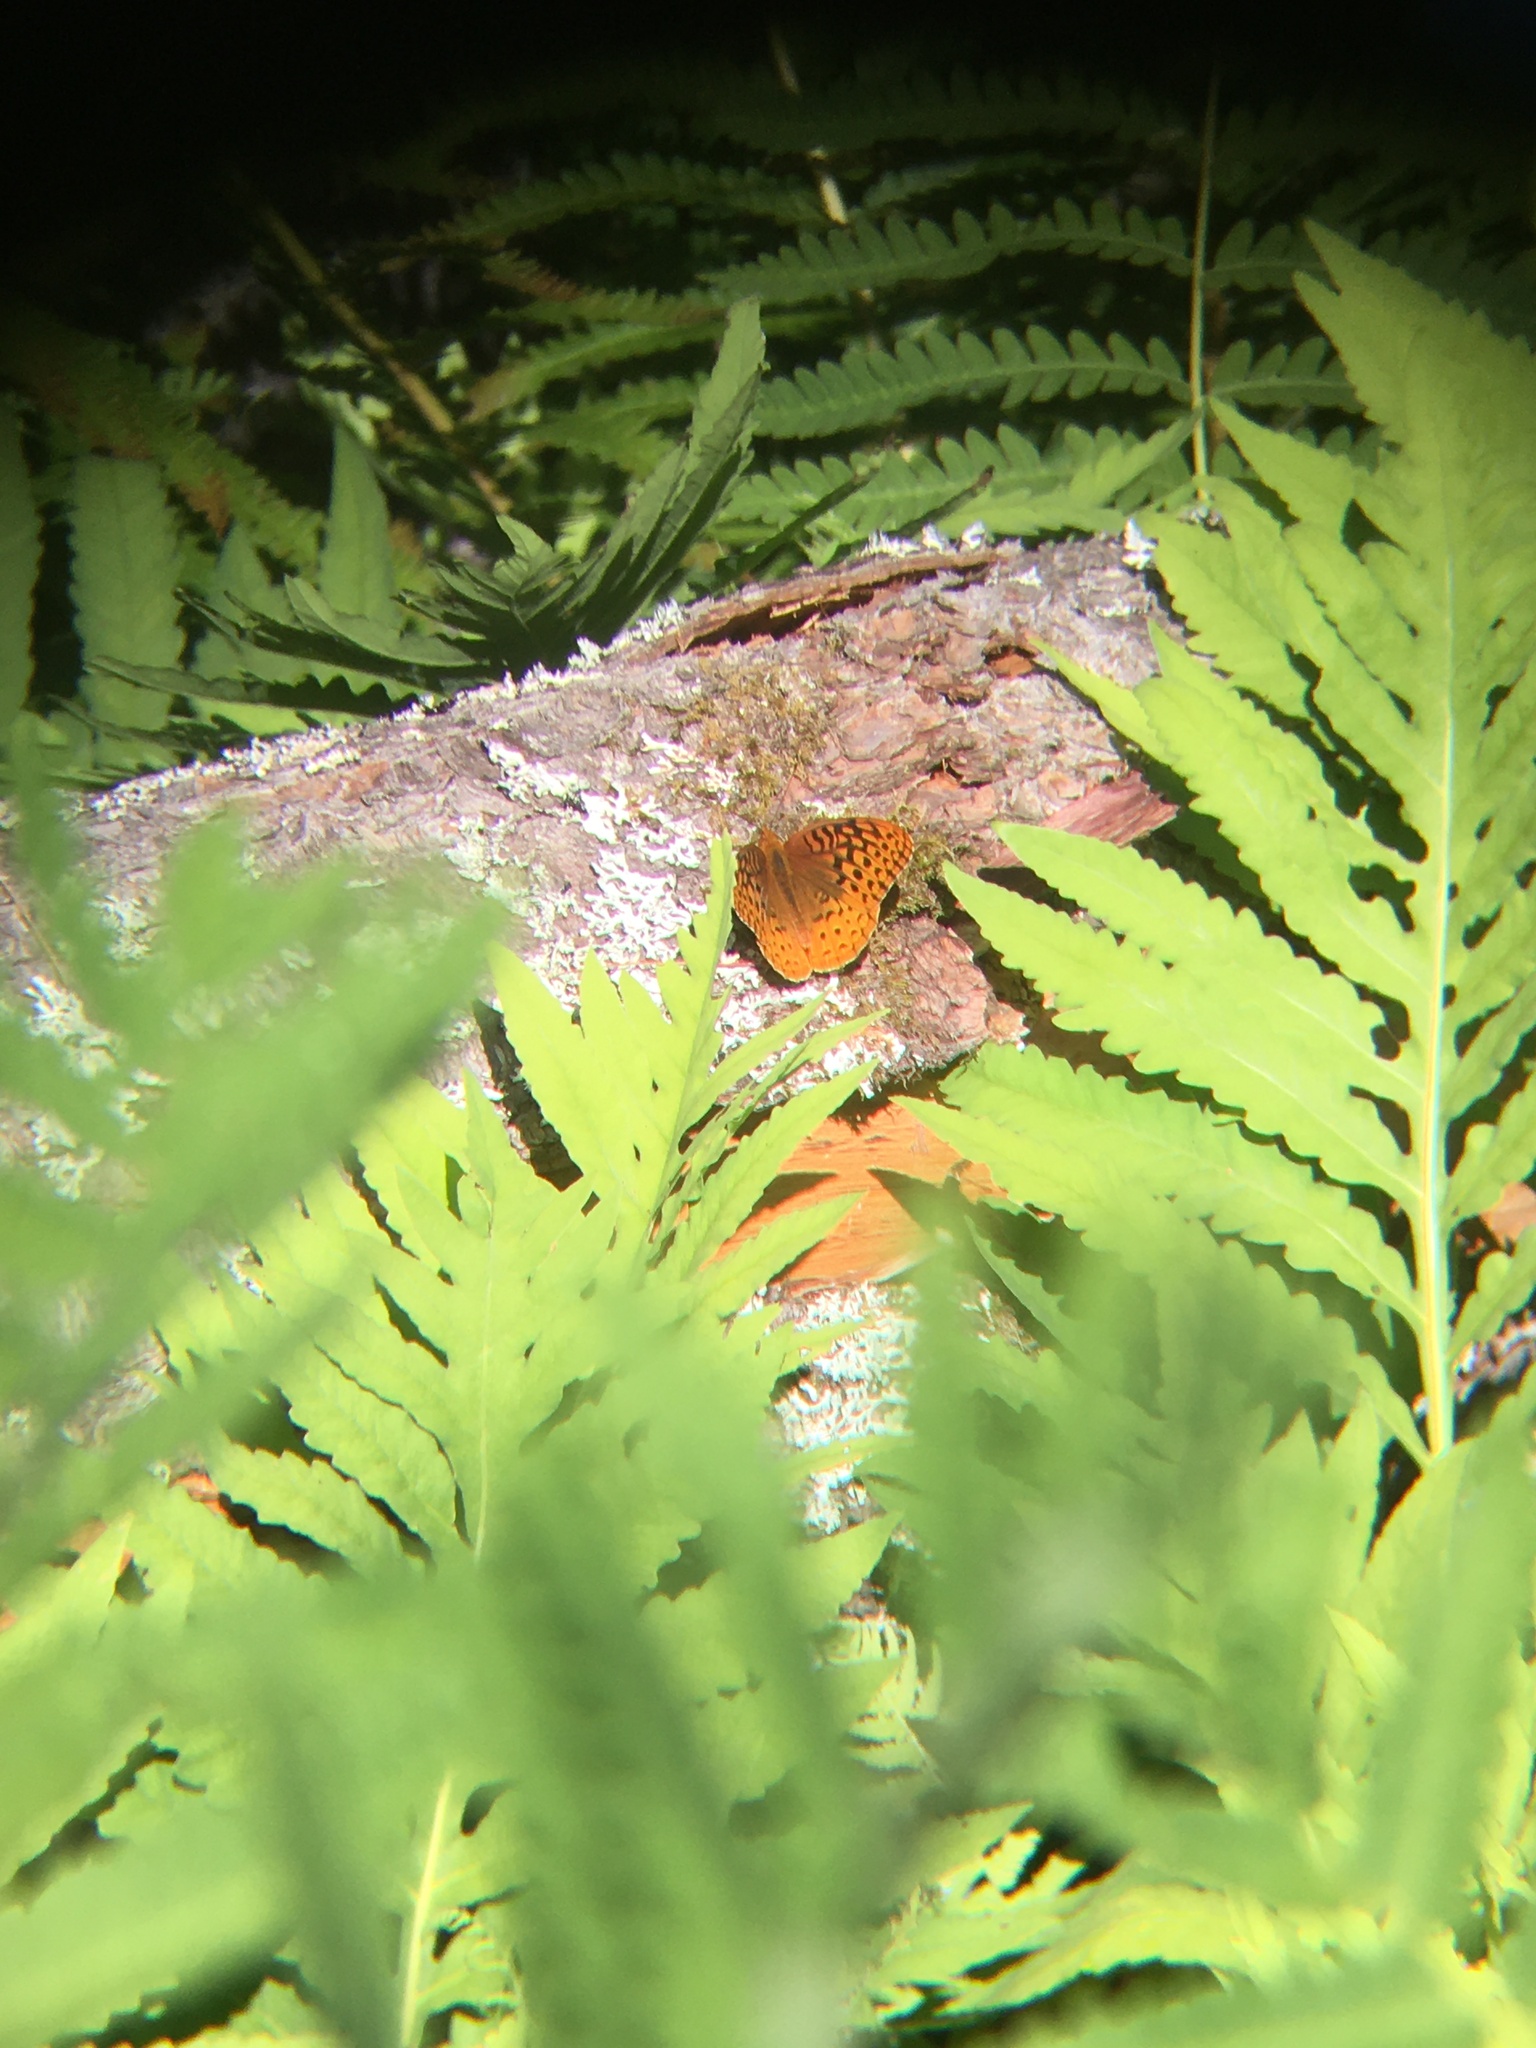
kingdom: Animalia
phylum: Arthropoda
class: Insecta
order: Lepidoptera
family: Nymphalidae
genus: Speyeria
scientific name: Speyeria cybele
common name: Great spangled fritillary
